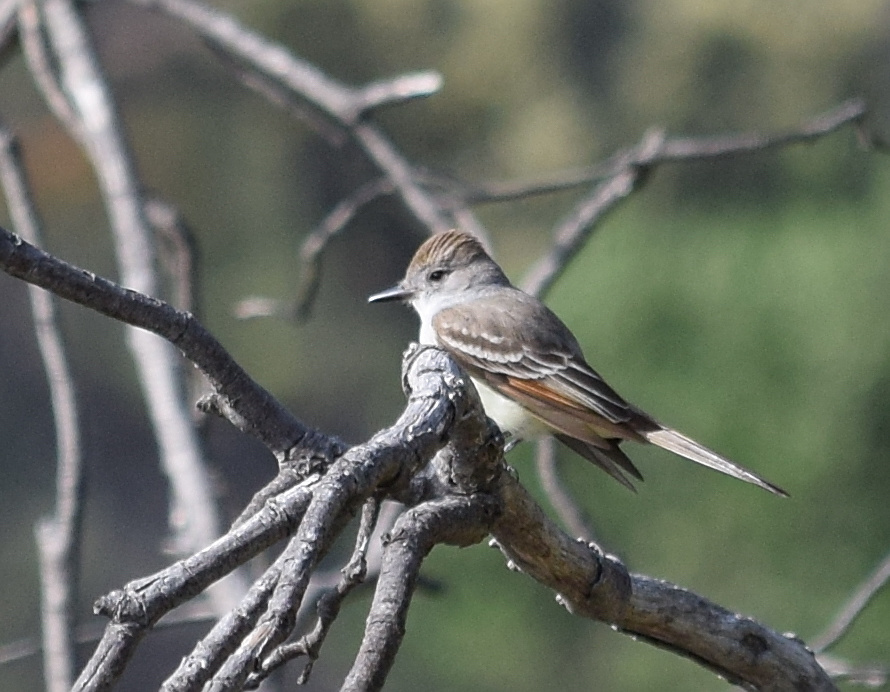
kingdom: Animalia
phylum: Chordata
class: Aves
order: Passeriformes
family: Tyrannidae
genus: Myiarchus
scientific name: Myiarchus cinerascens
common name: Ash-throated flycatcher
